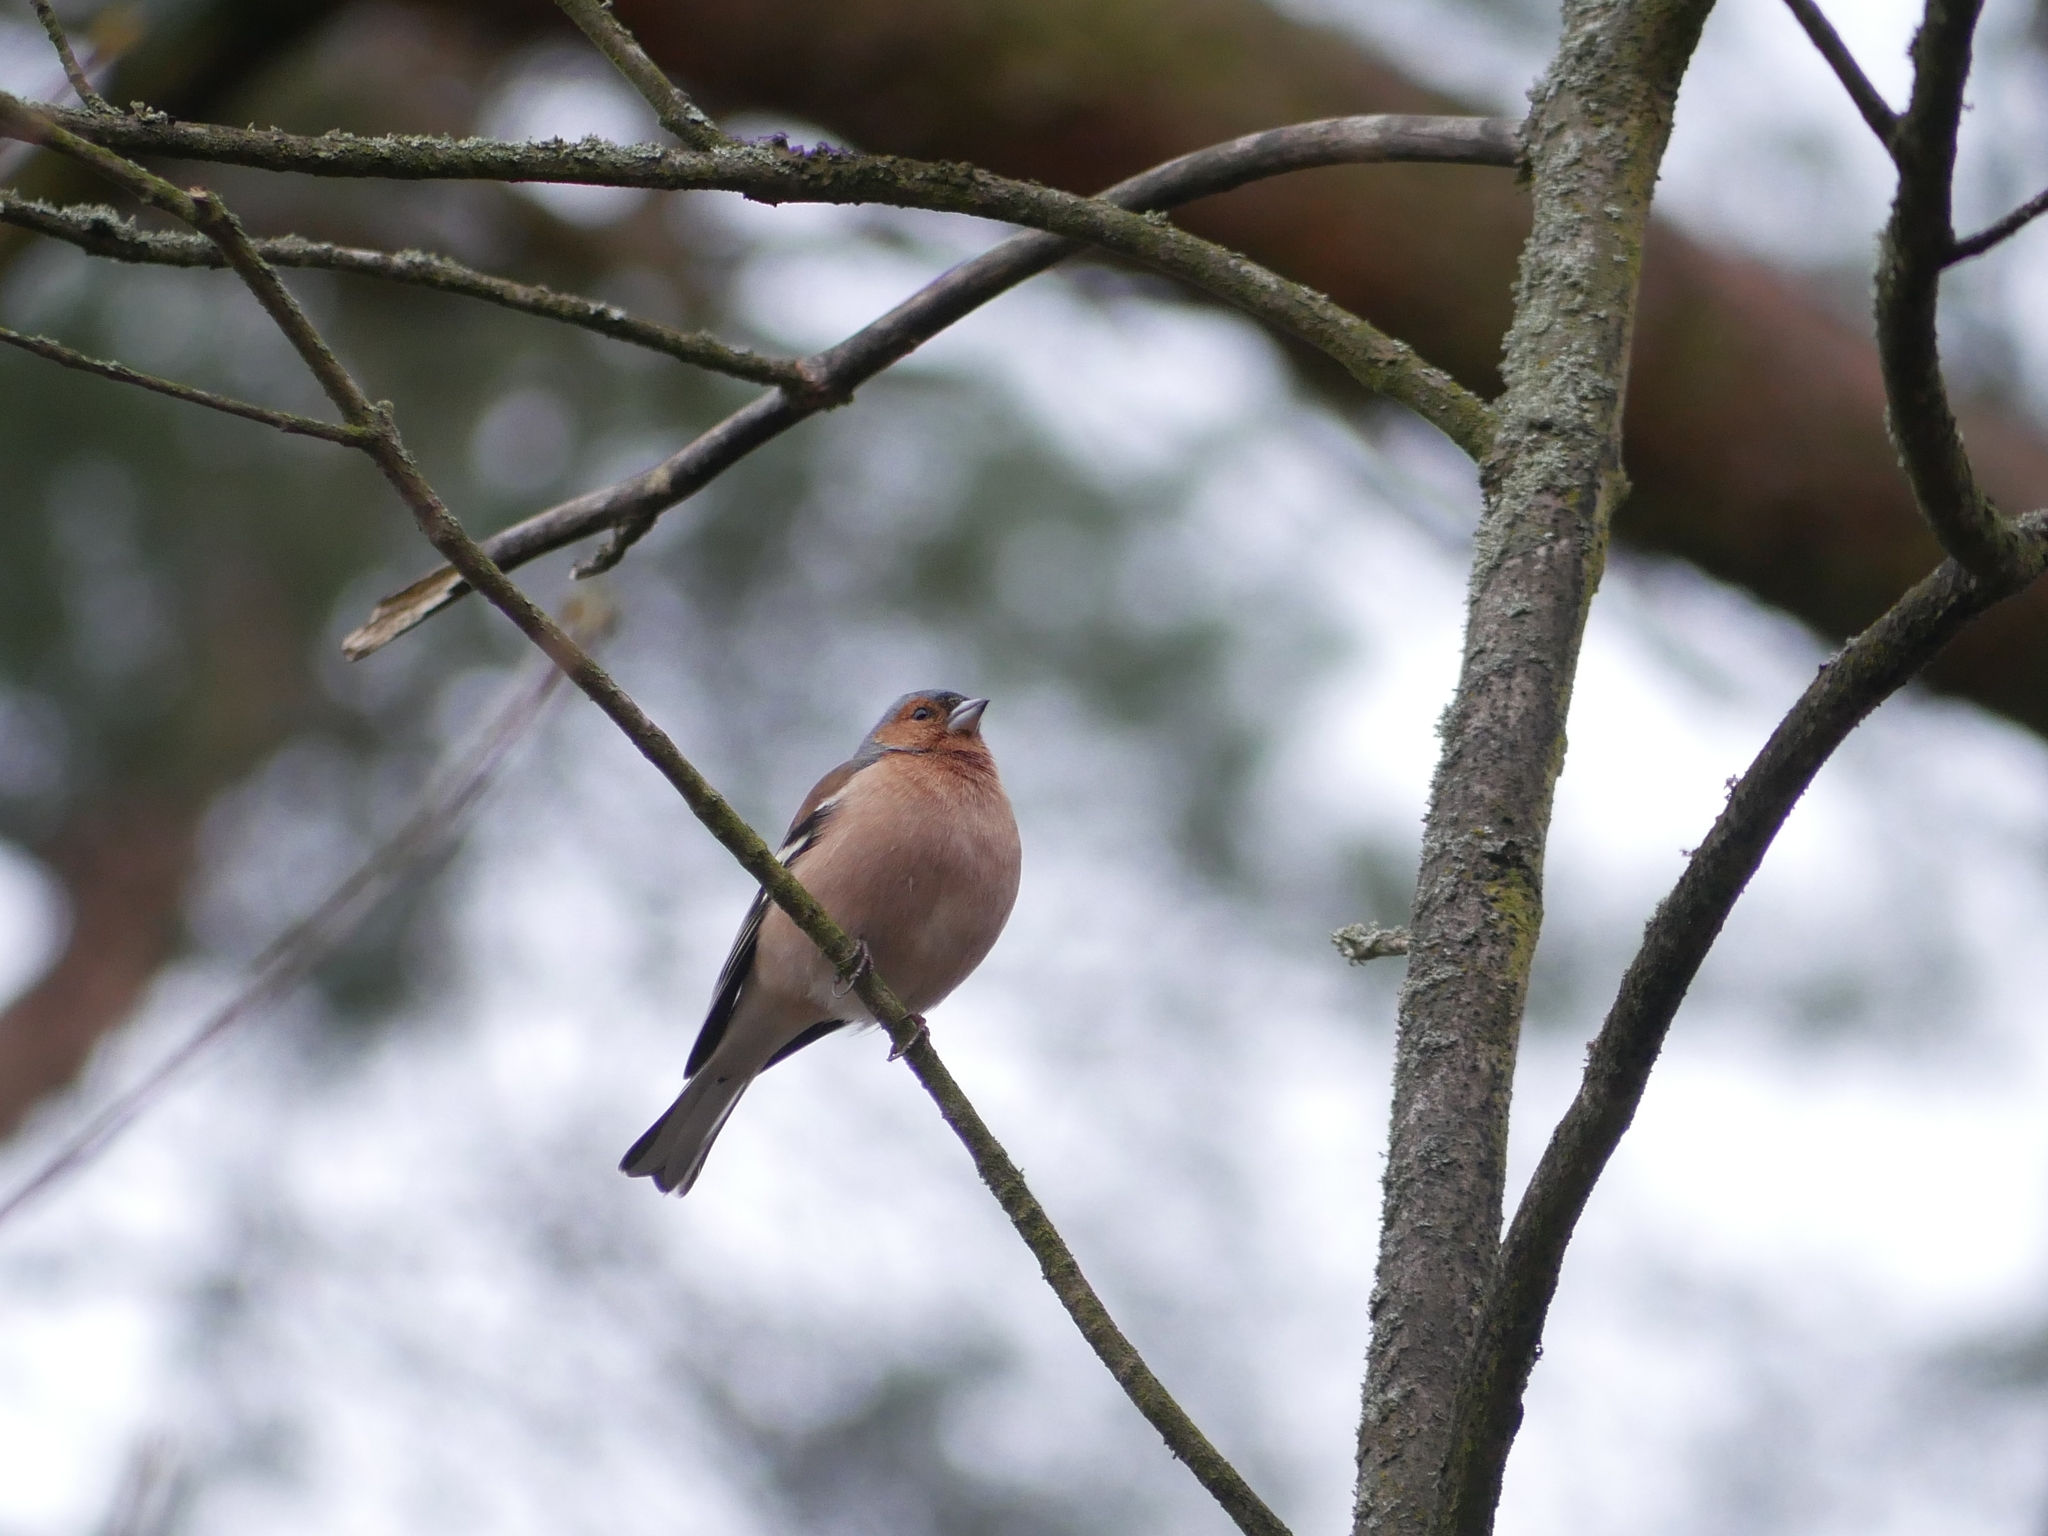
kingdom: Animalia
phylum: Chordata
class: Aves
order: Passeriformes
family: Fringillidae
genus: Fringilla
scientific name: Fringilla coelebs
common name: Common chaffinch
